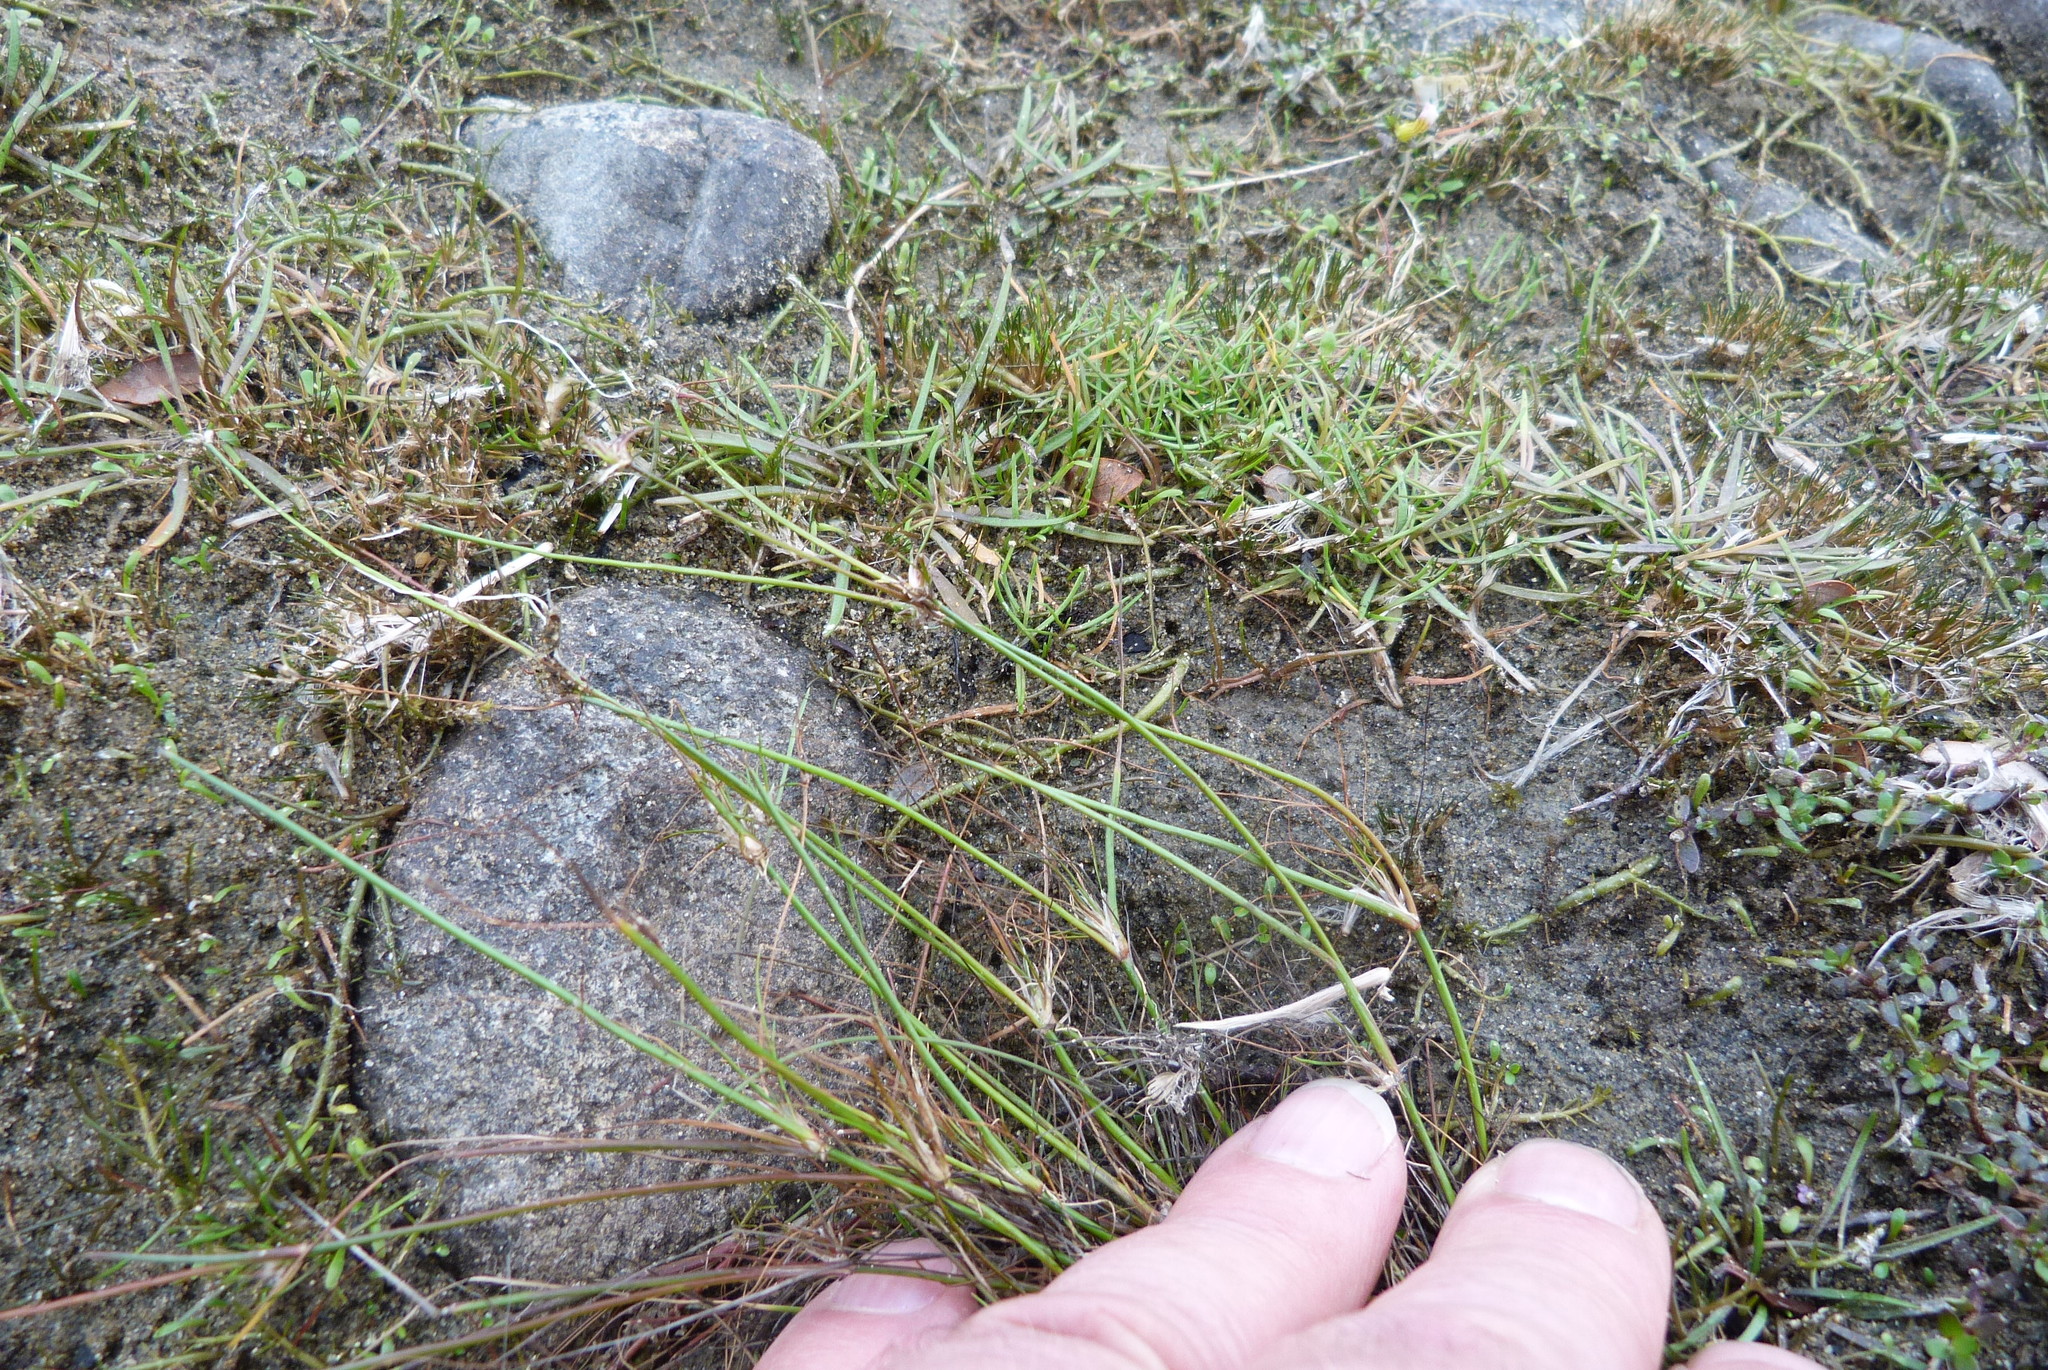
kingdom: Plantae
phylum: Tracheophyta
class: Liliopsida
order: Poales
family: Juncaceae
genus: Juncus
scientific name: Juncus bulbosus
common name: Bulbous rush
